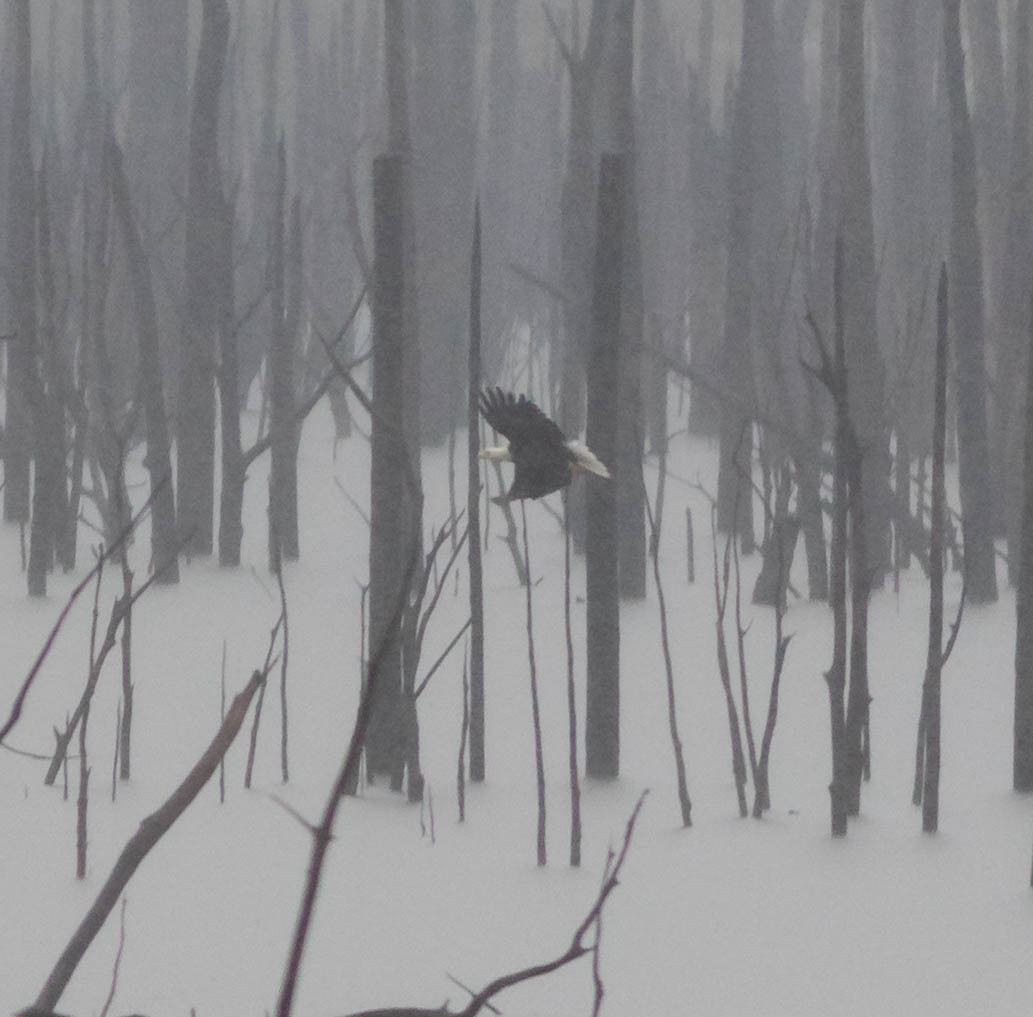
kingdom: Animalia
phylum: Chordata
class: Aves
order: Accipitriformes
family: Accipitridae
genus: Haliaeetus
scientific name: Haliaeetus leucocephalus
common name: Bald eagle
